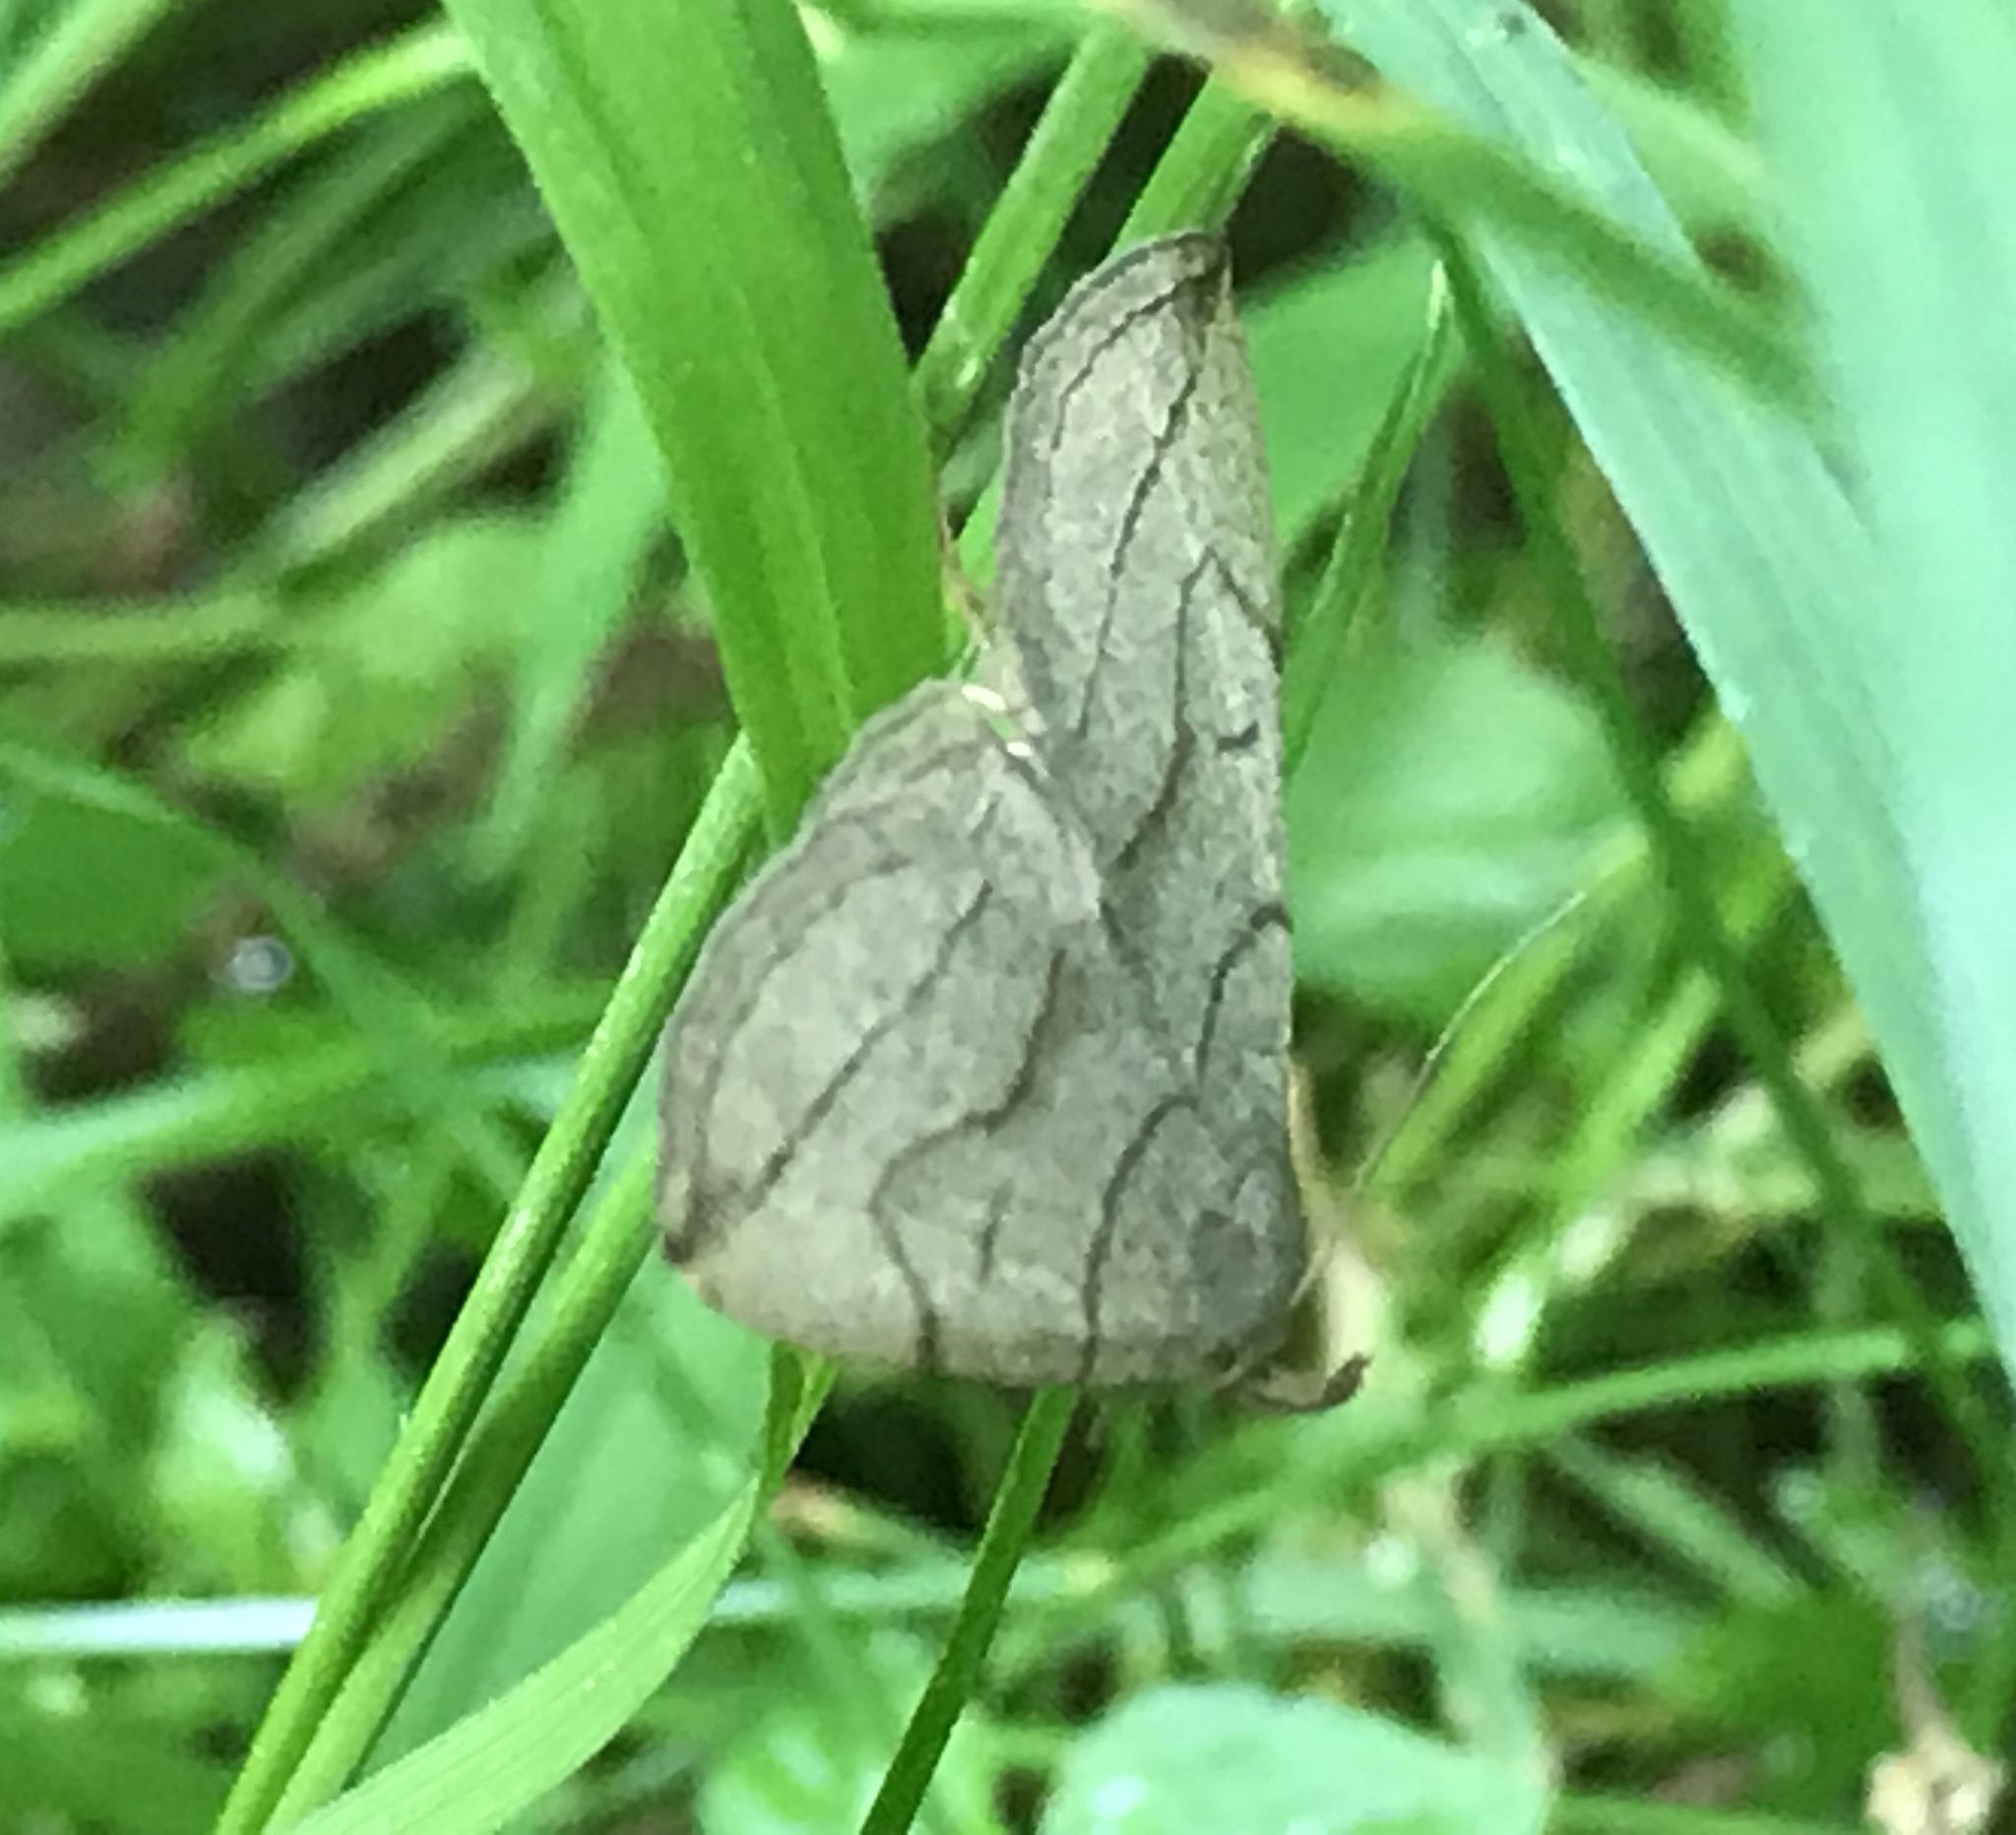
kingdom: Animalia
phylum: Arthropoda
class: Insecta
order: Lepidoptera
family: Erebidae
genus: Zanclognatha
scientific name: Zanclognatha pedipilalis
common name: Grayish fan-foot
